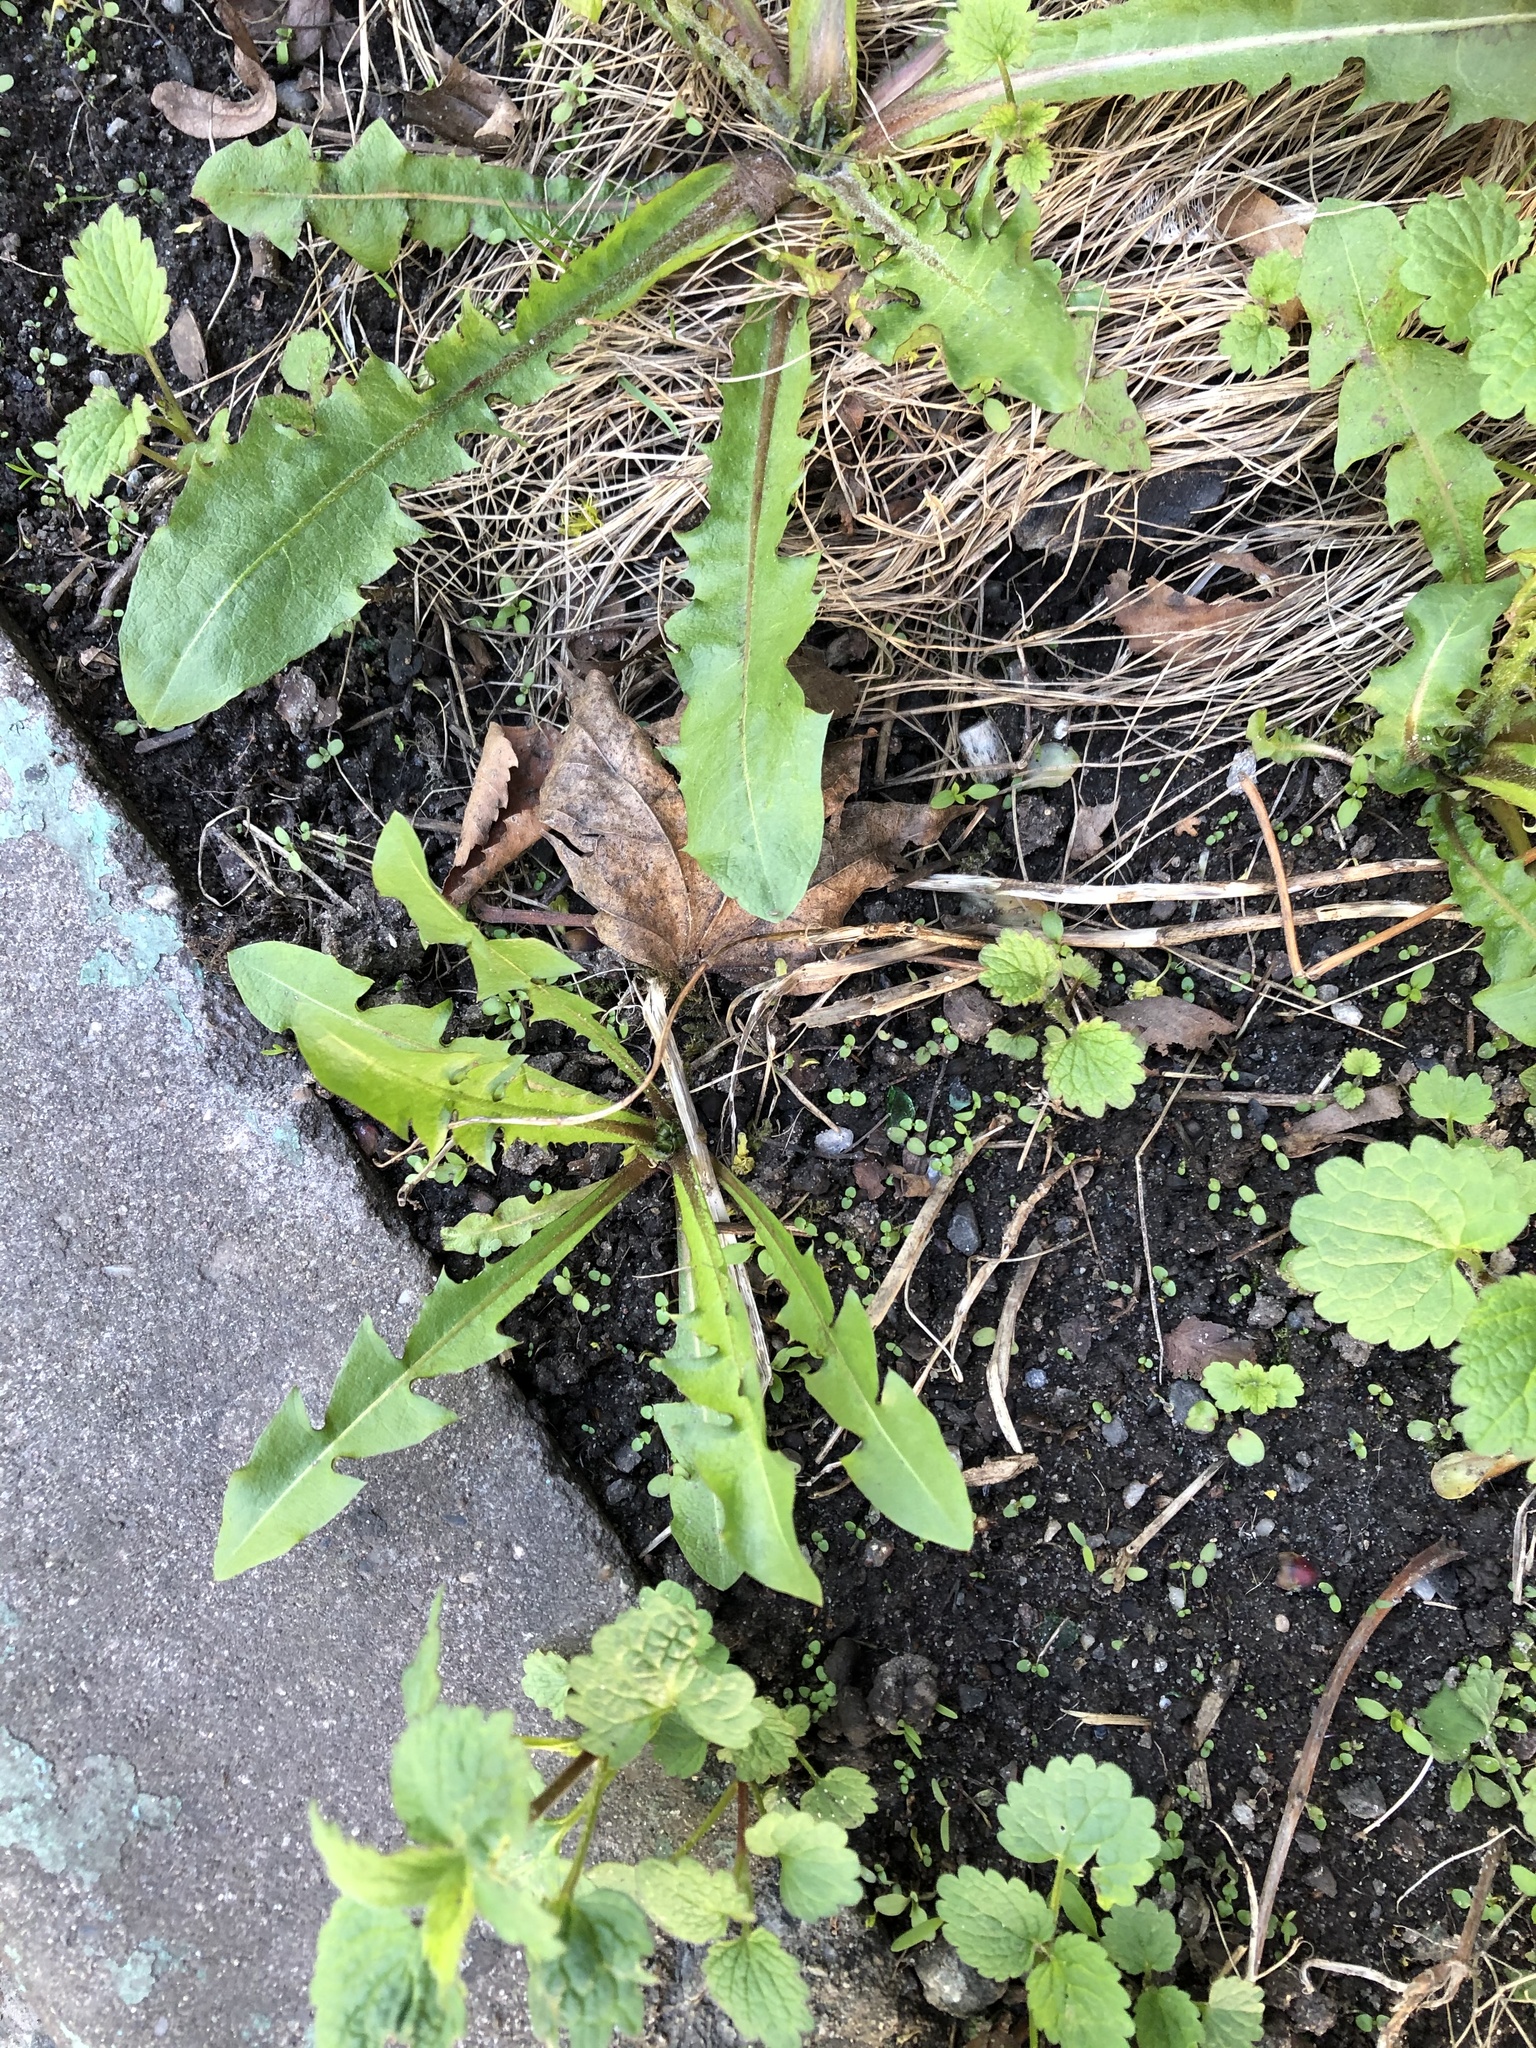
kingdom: Plantae
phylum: Tracheophyta
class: Magnoliopsida
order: Asterales
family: Asteraceae
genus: Taraxacum
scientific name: Taraxacum officinale
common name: Common dandelion
